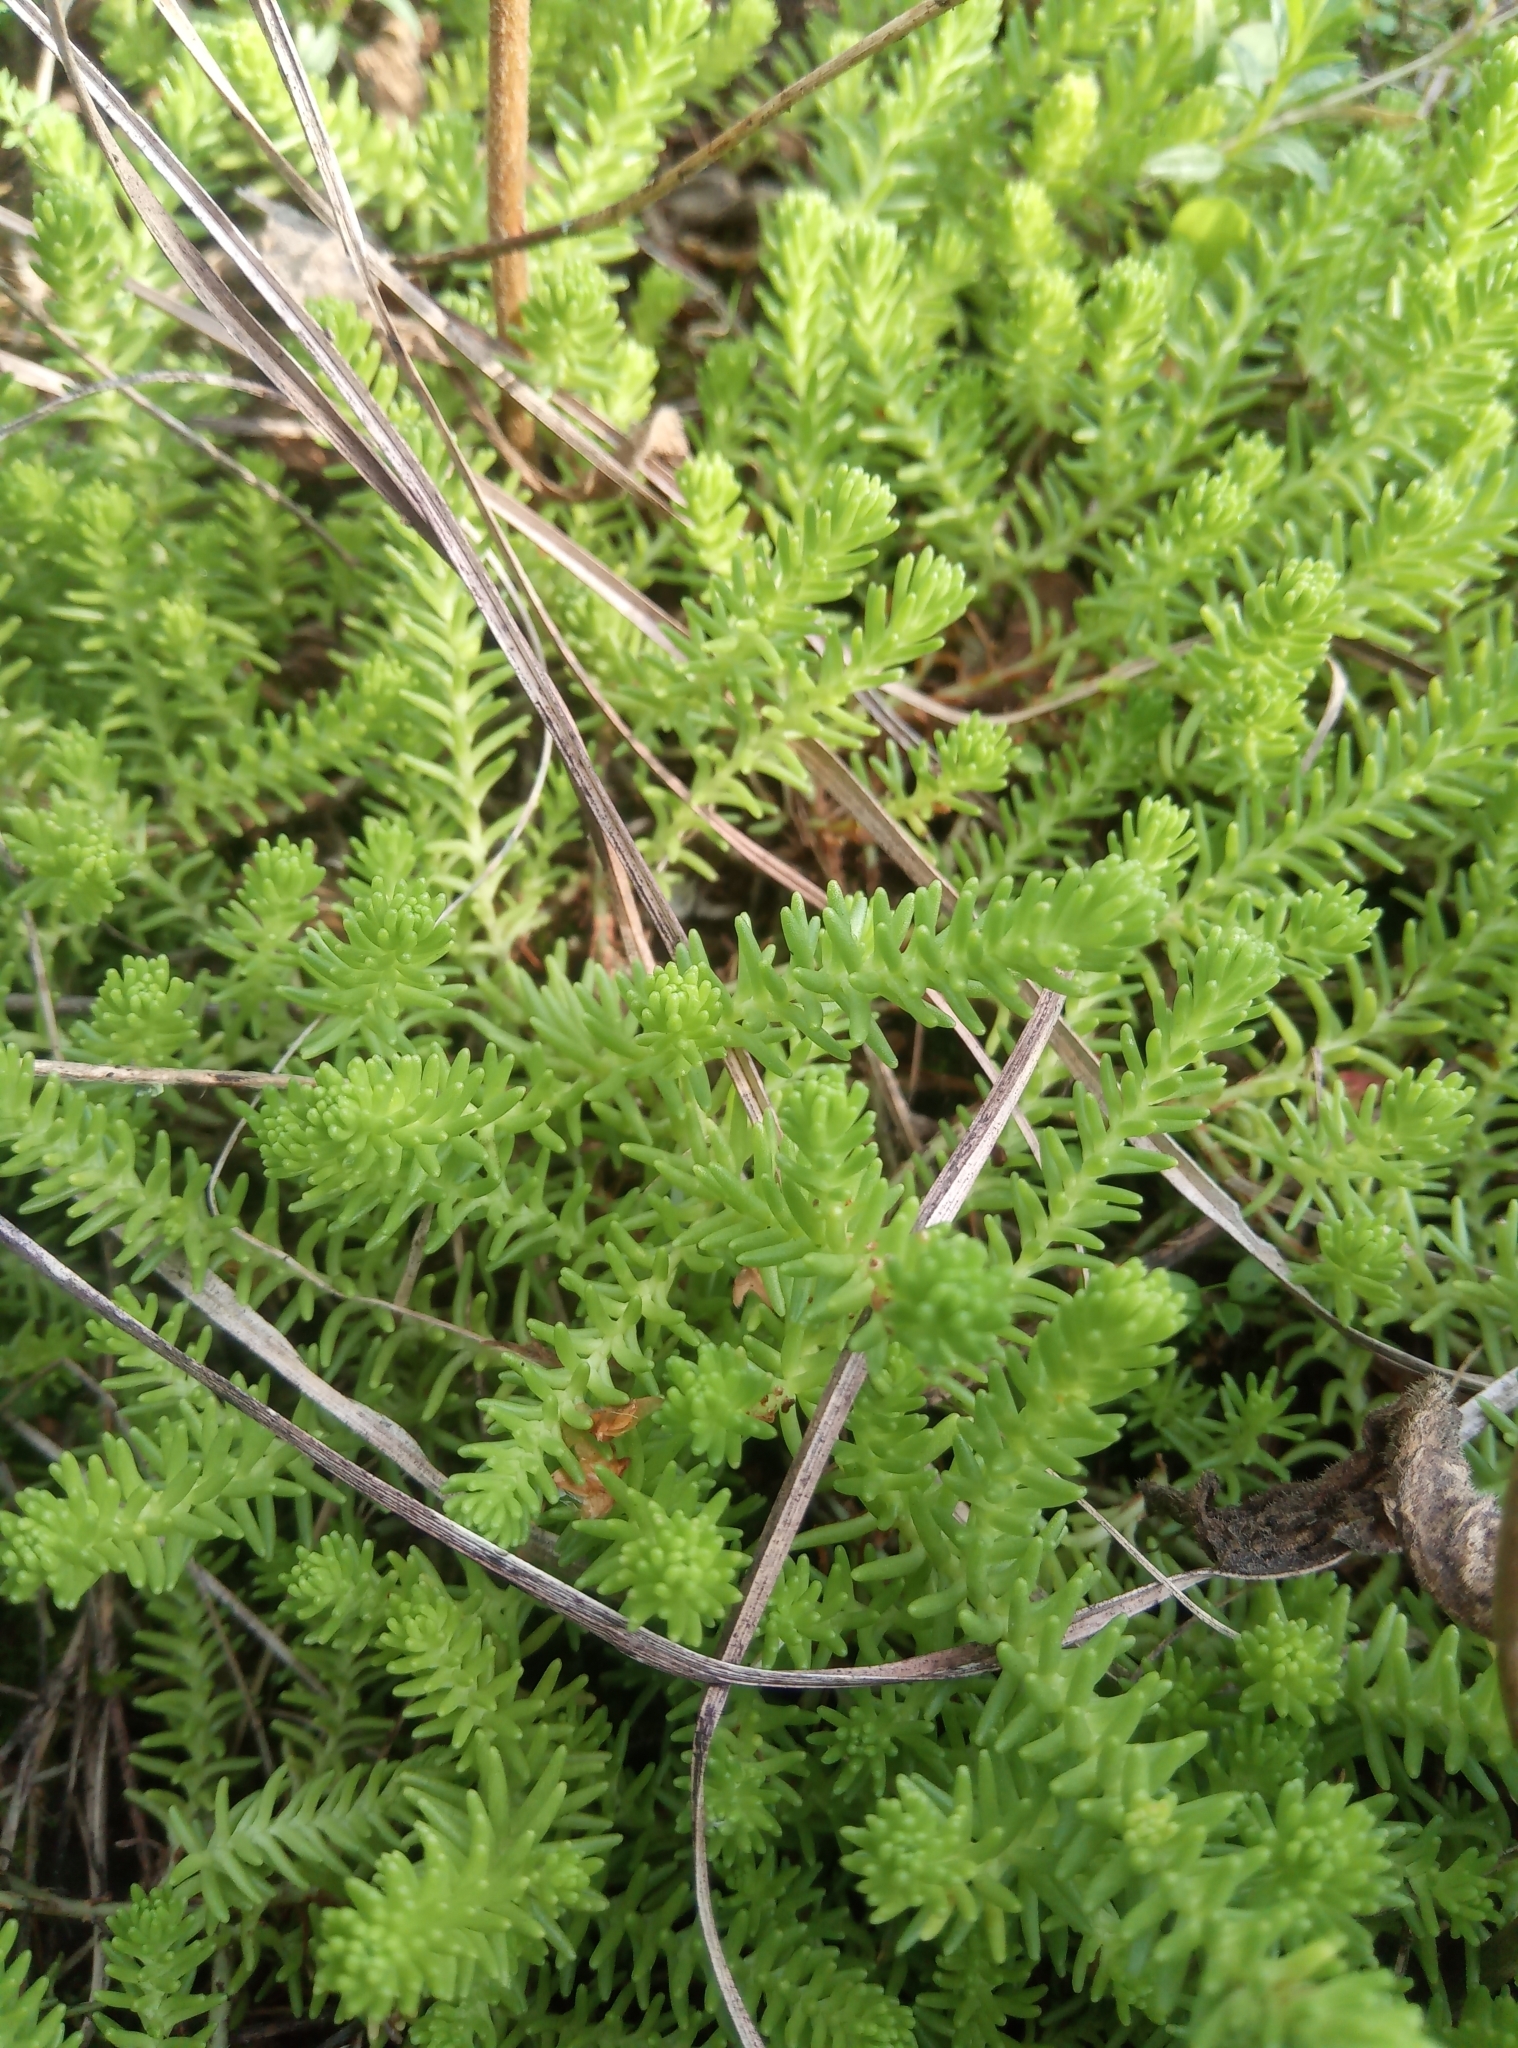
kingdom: Plantae
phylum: Tracheophyta
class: Magnoliopsida
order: Saxifragales
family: Crassulaceae
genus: Sedum
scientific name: Sedum sexangulare
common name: Tasteless stonecrop
